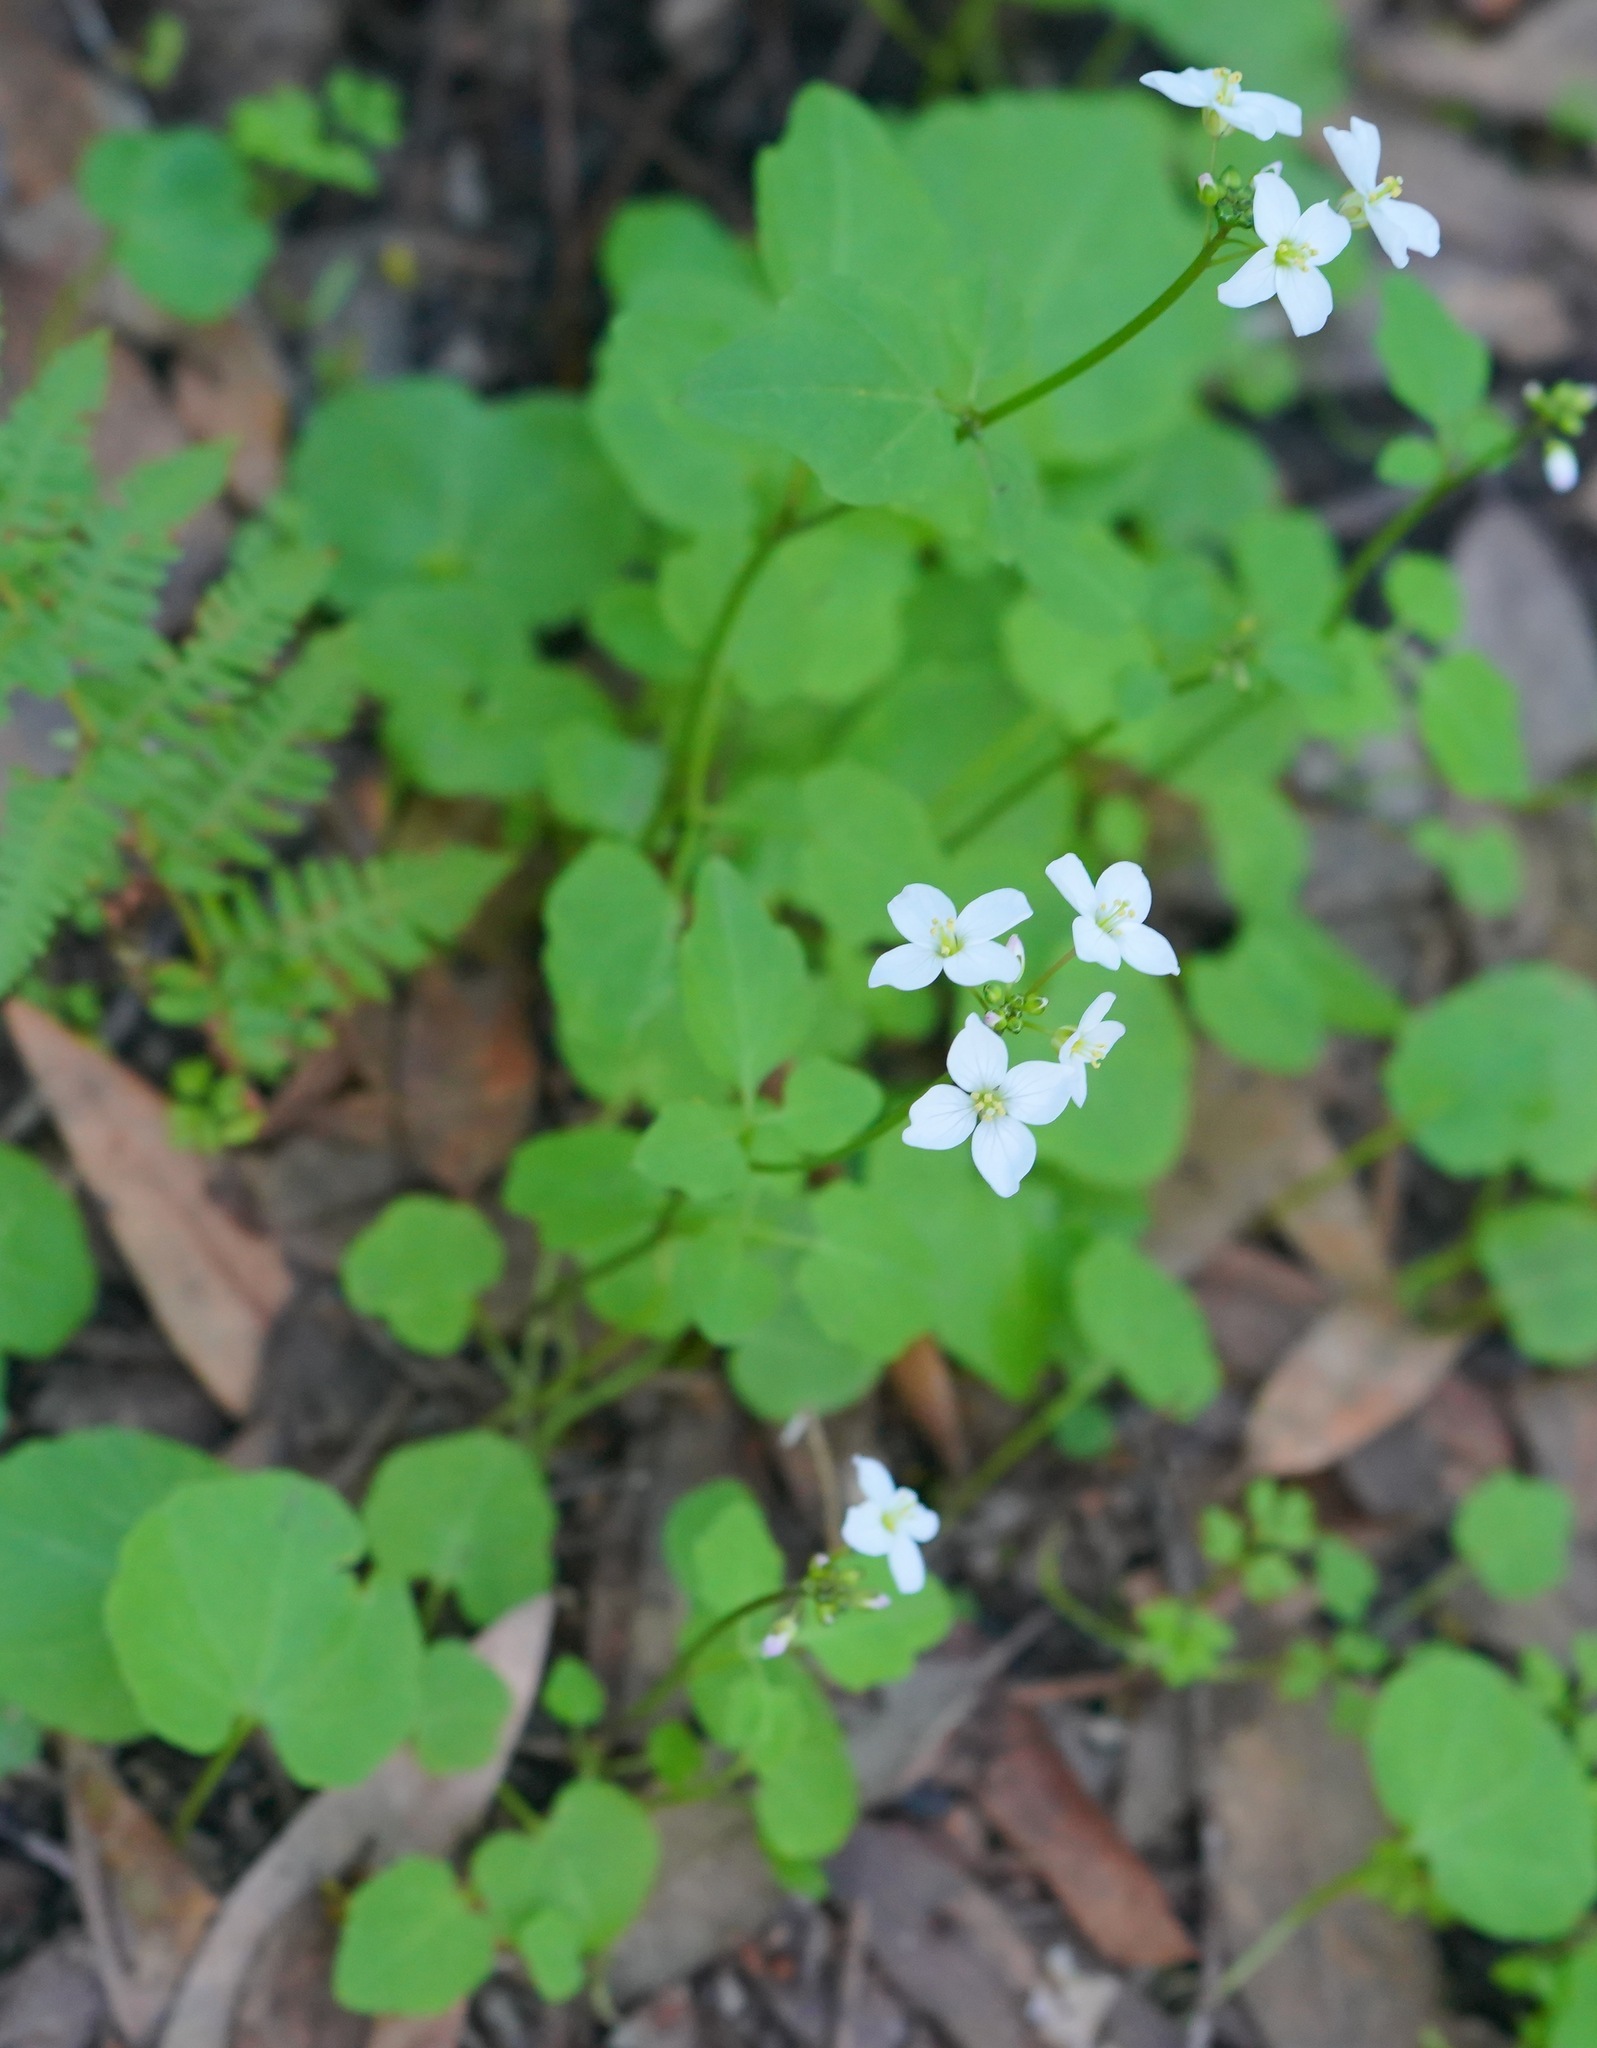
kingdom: Plantae
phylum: Tracheophyta
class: Magnoliopsida
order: Brassicales
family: Brassicaceae
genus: Cardamine
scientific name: Cardamine californica
